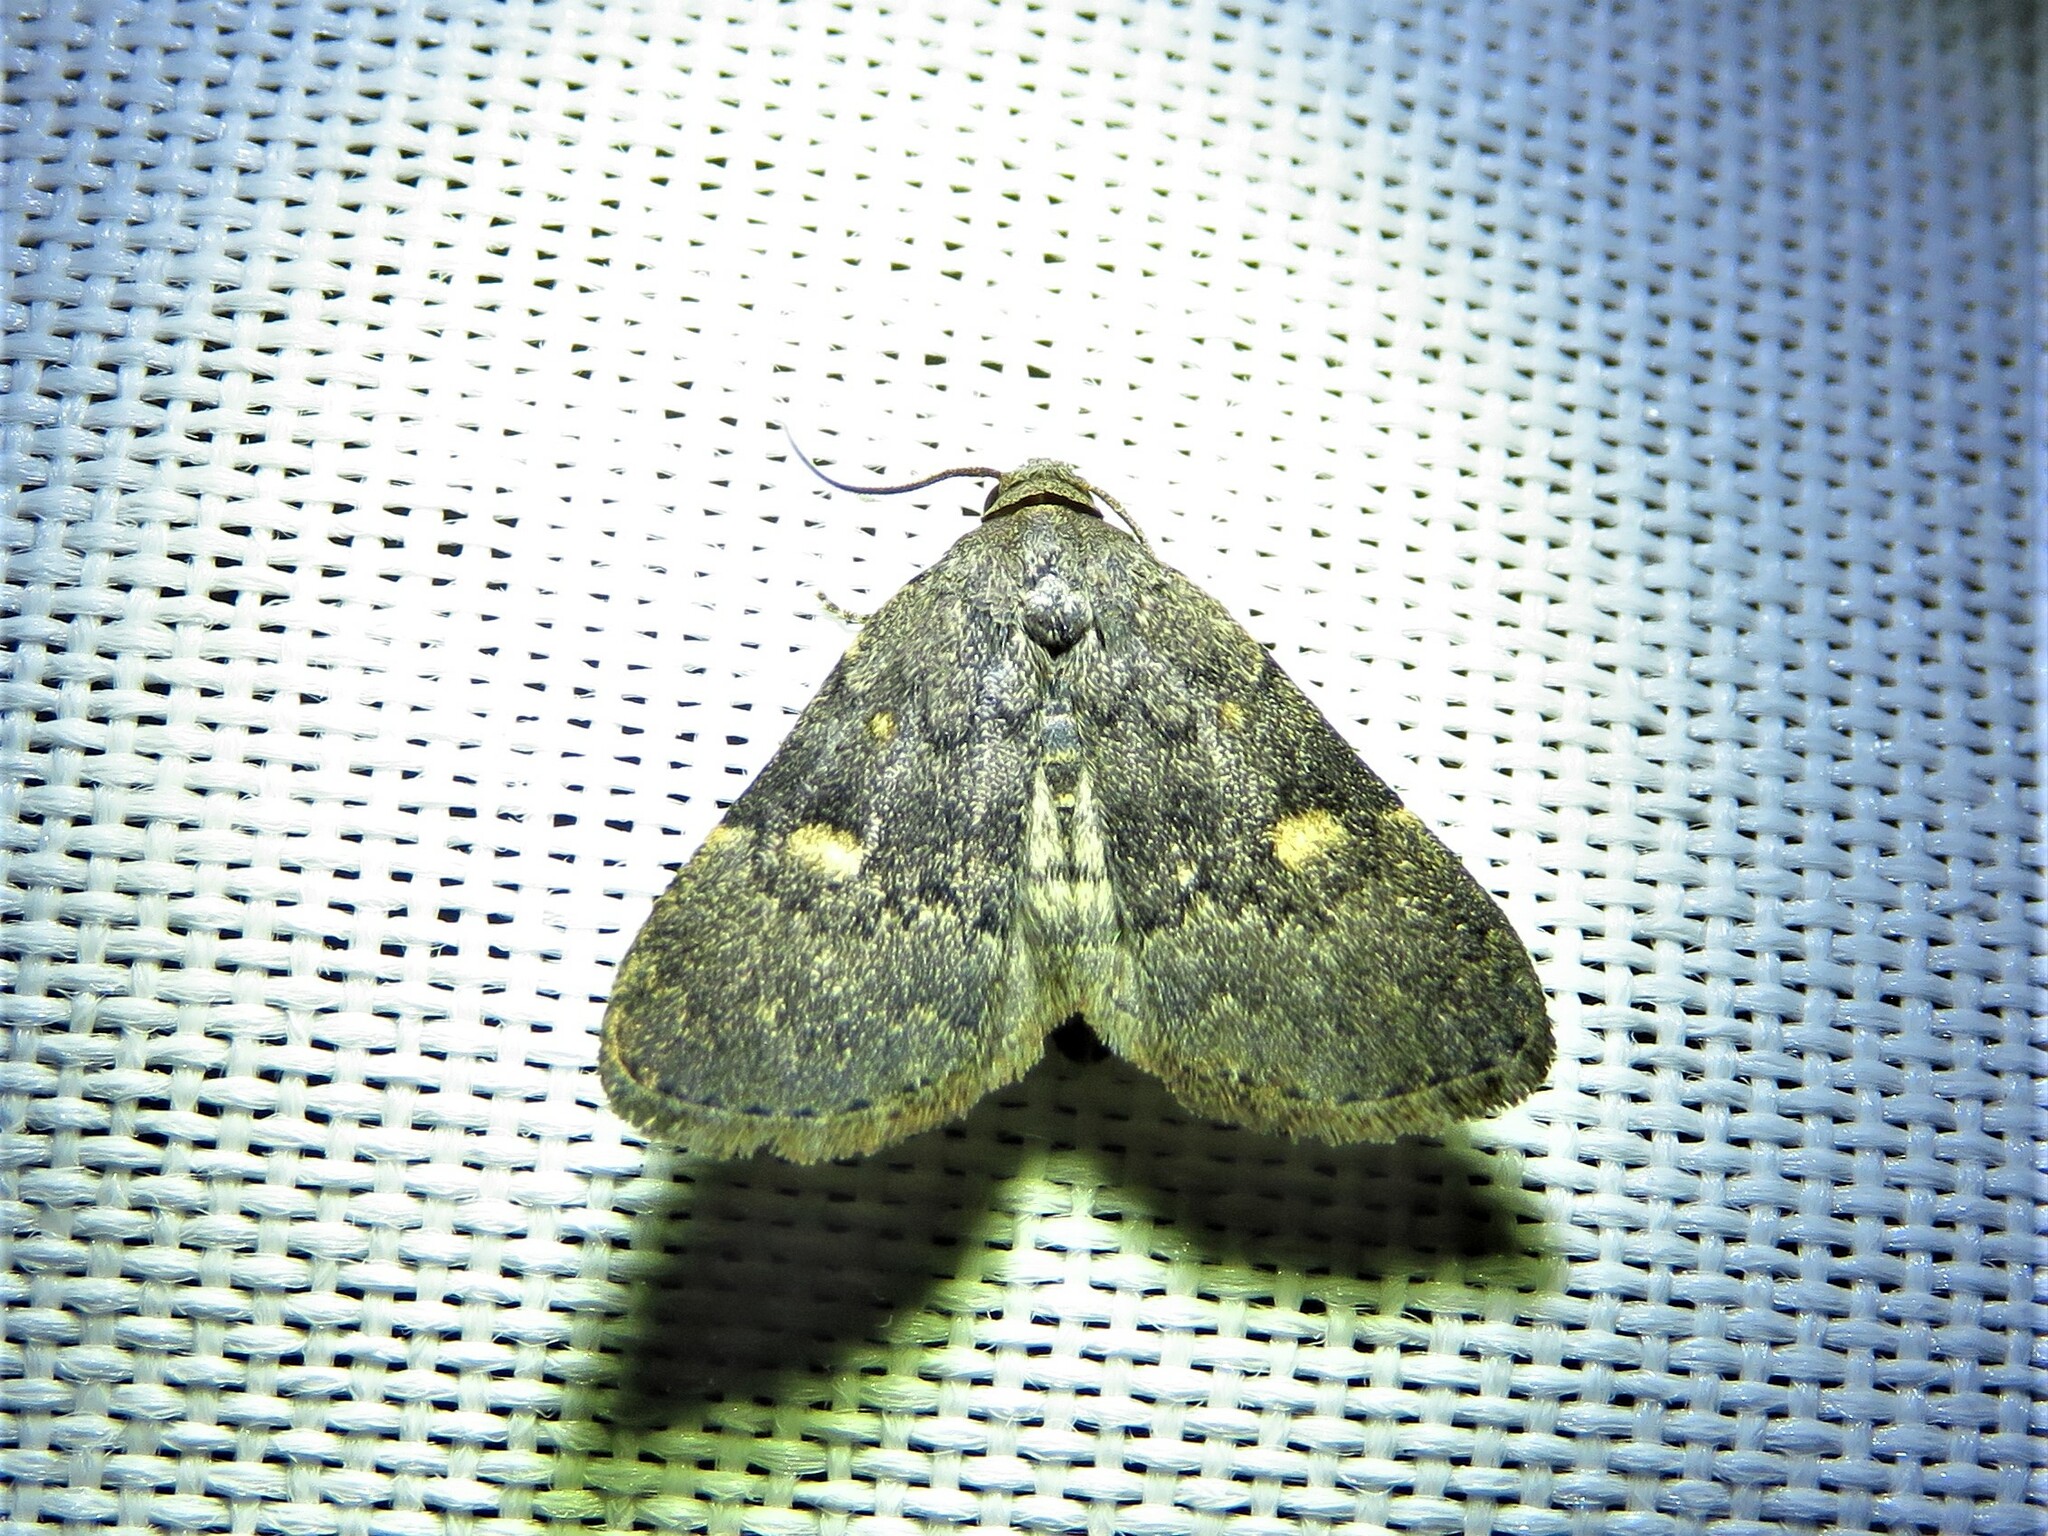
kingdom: Animalia
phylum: Arthropoda
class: Insecta
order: Lepidoptera
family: Erebidae
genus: Idia
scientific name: Idia aemula
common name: Common idia moth
